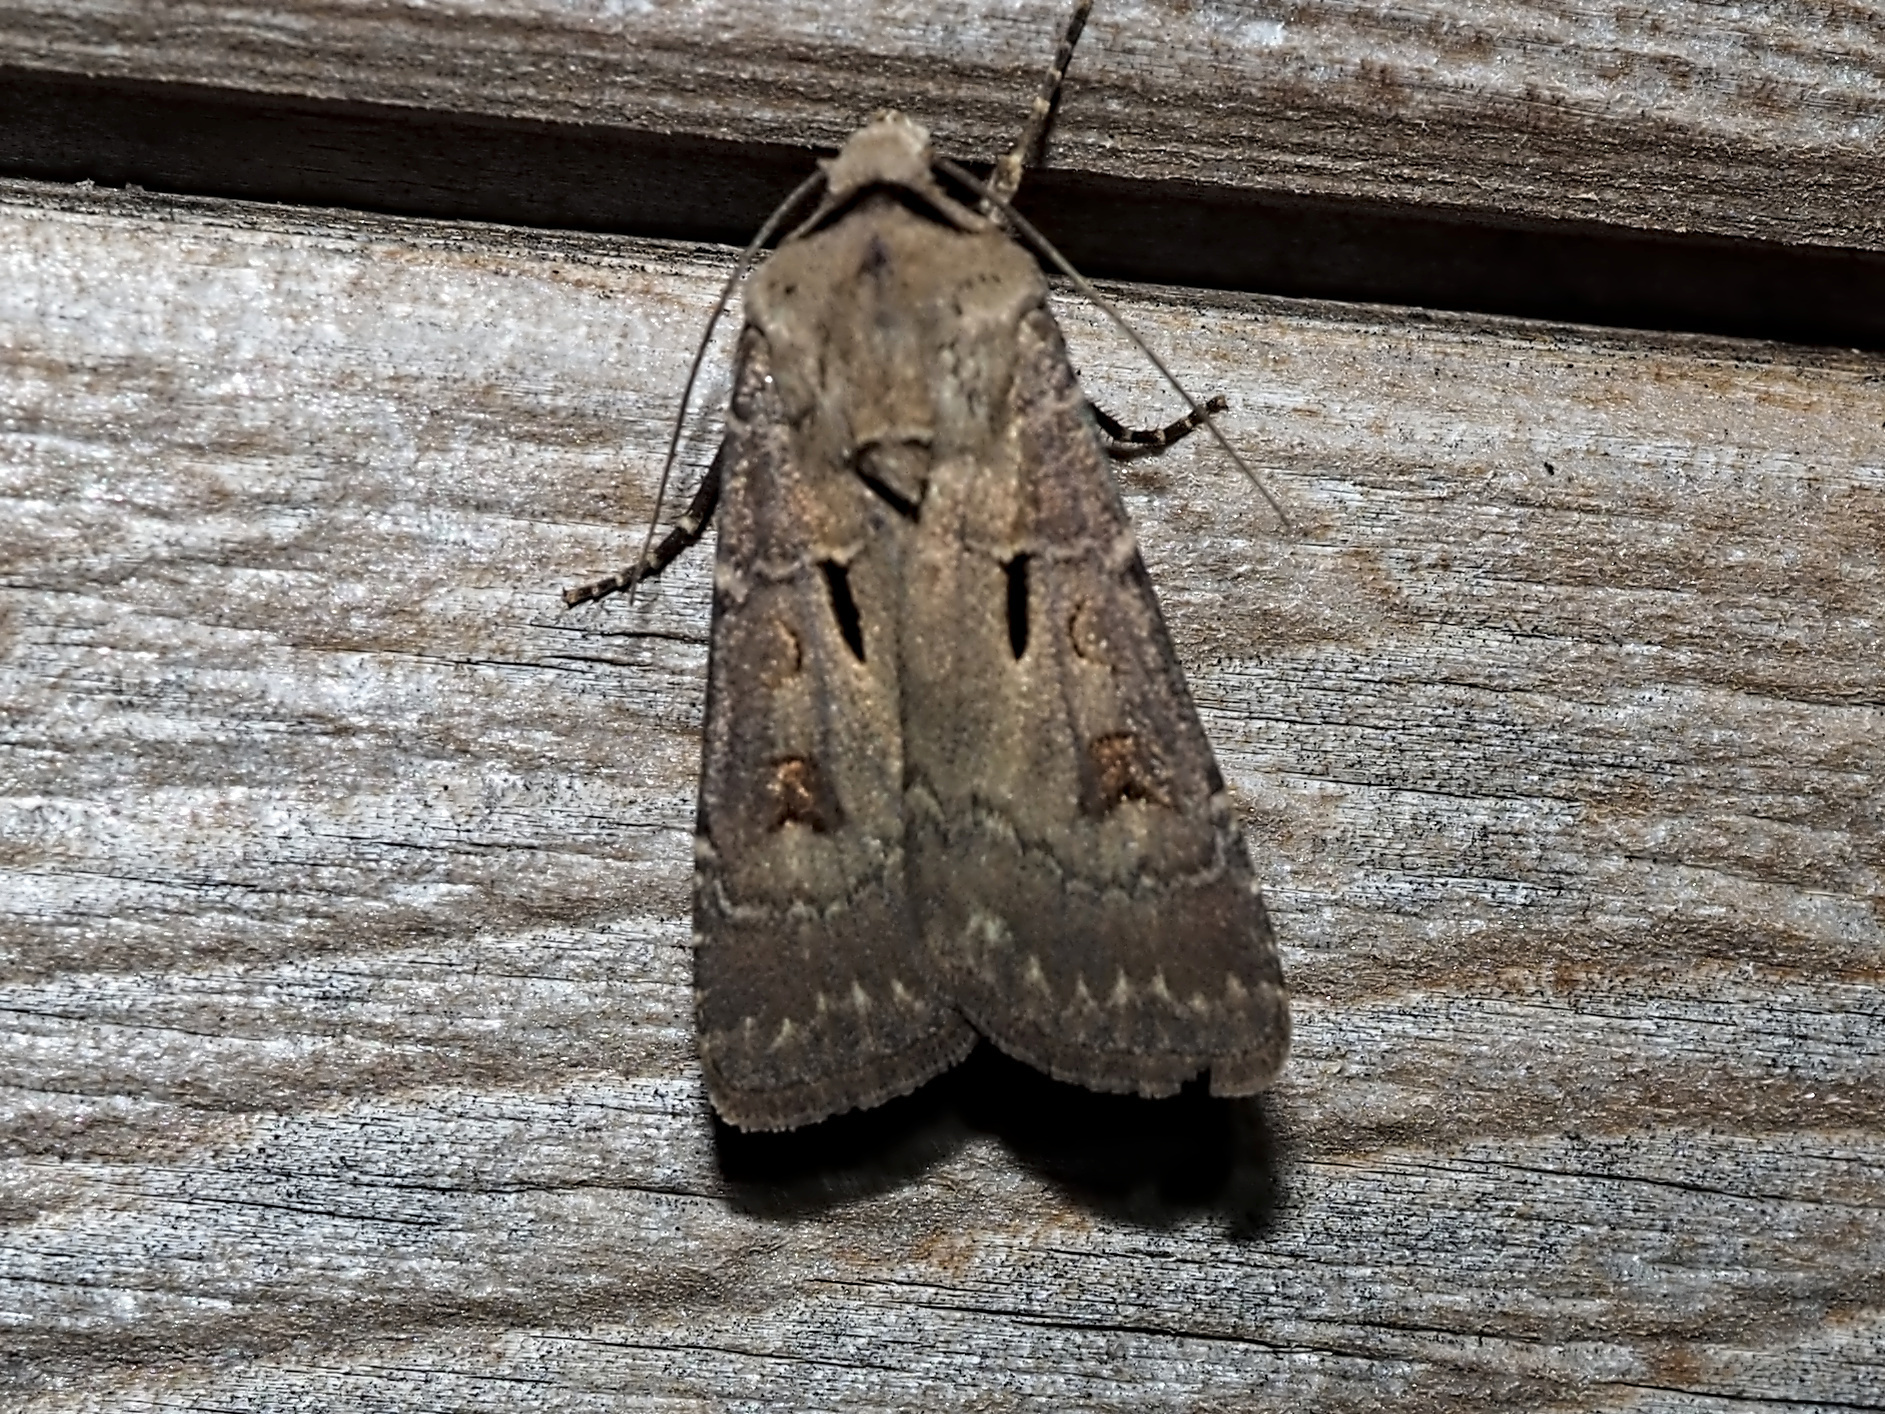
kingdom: Animalia
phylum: Arthropoda
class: Insecta
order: Lepidoptera
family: Noctuidae
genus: Agrotis
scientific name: Agrotis exclamationis
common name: Heart and dart
